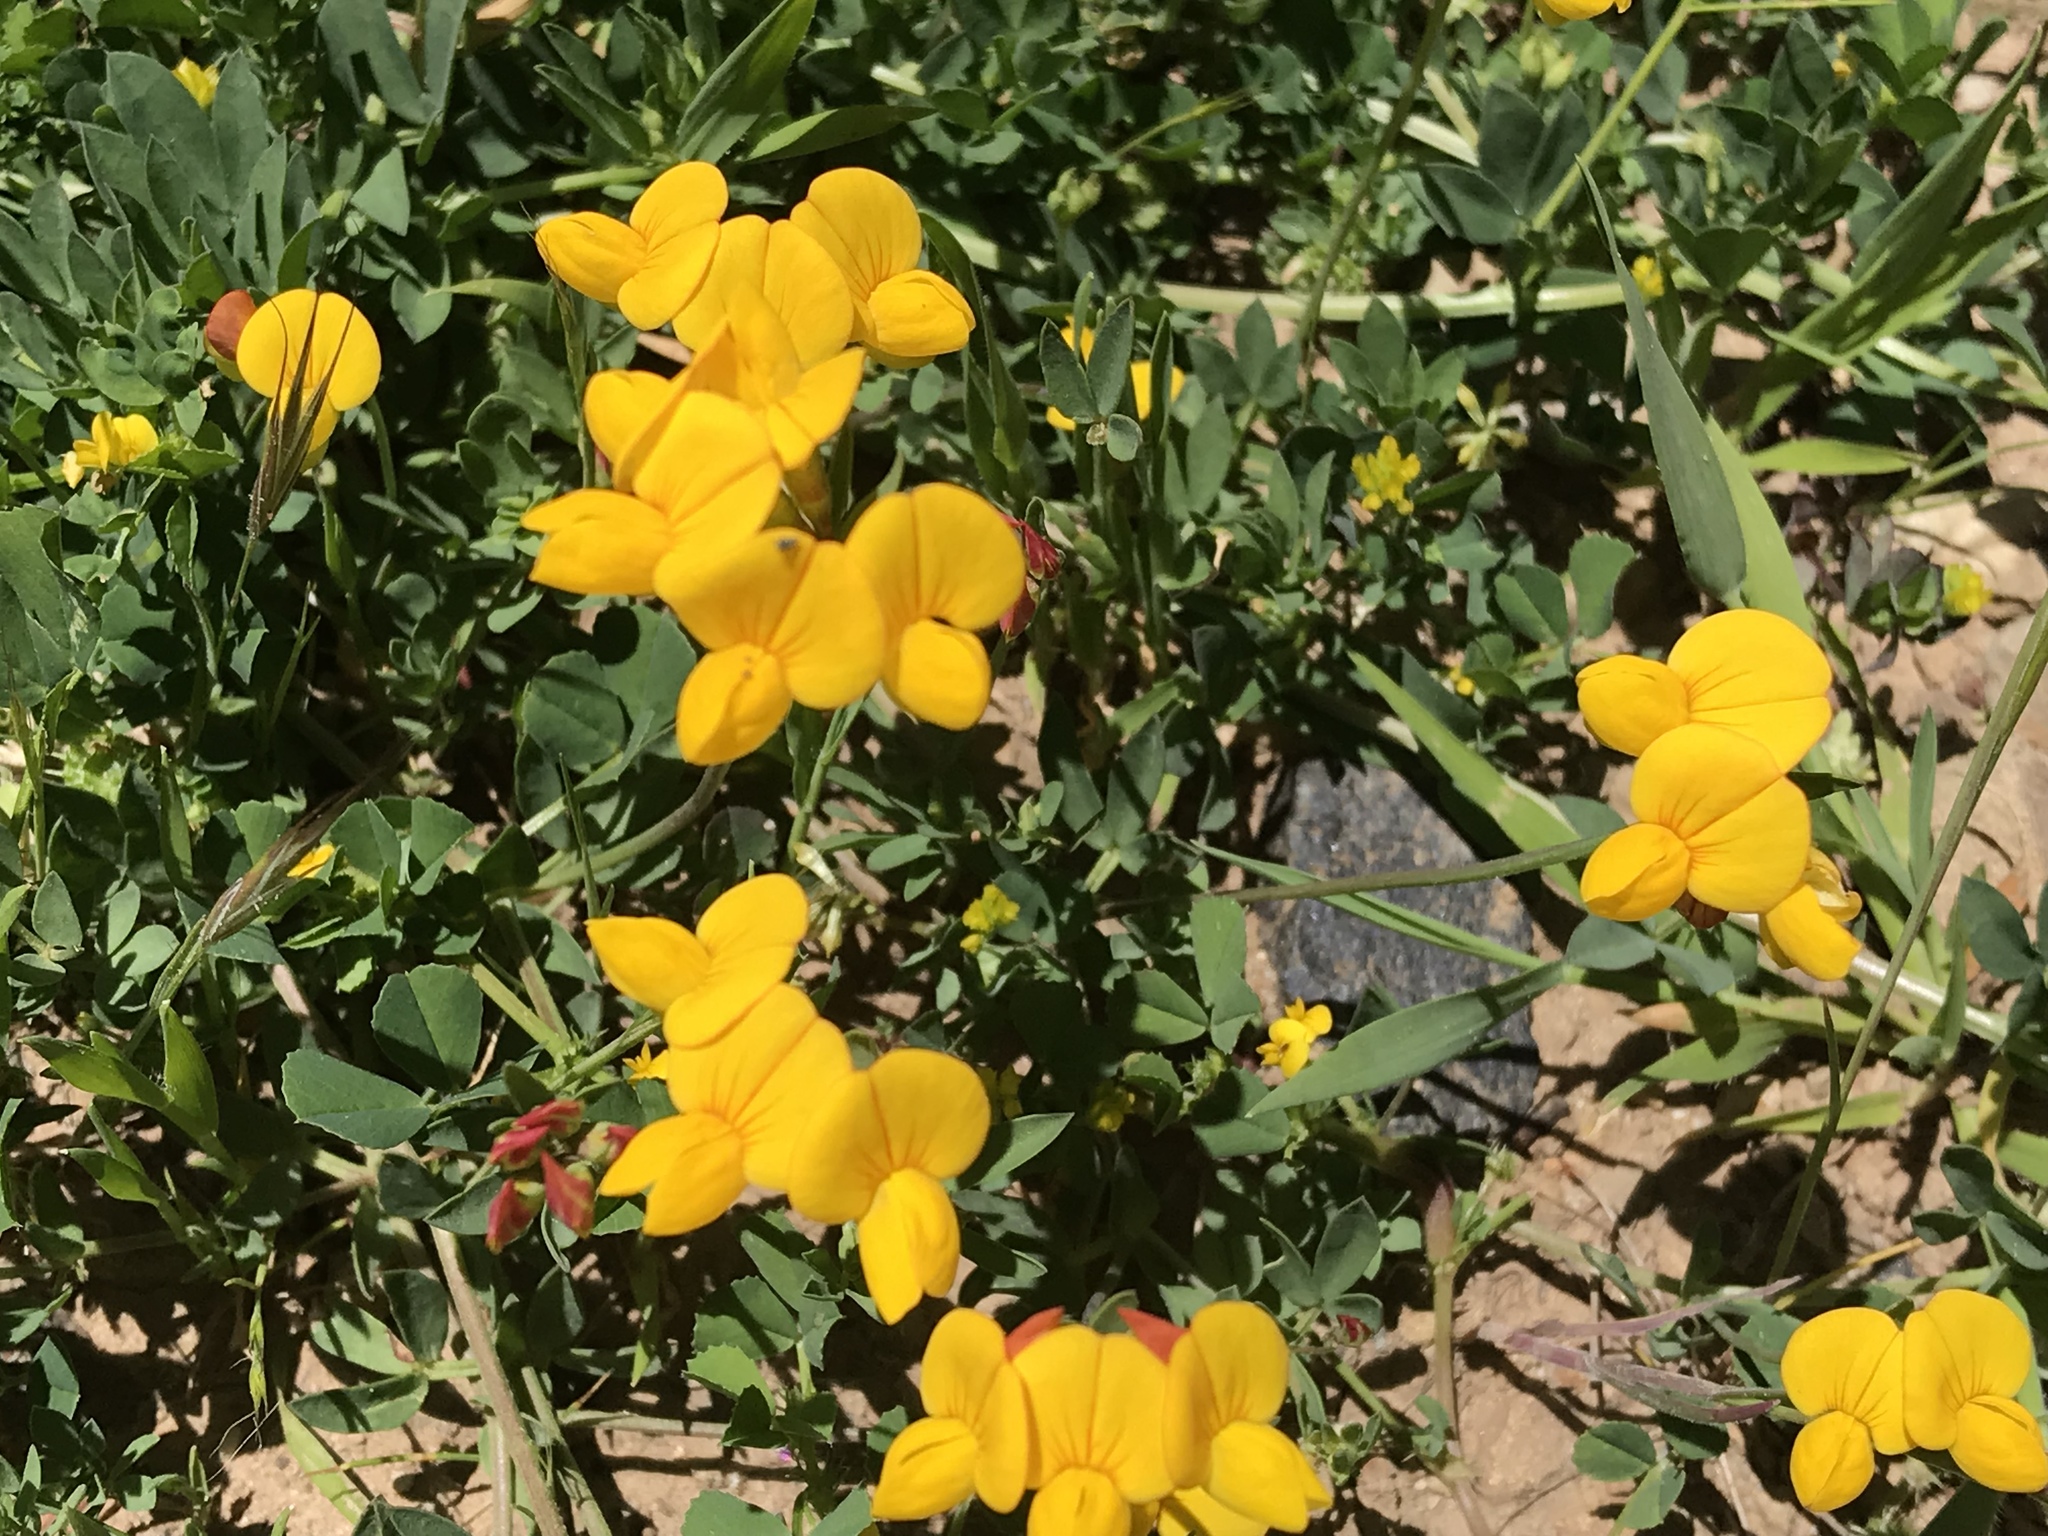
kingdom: Plantae
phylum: Tracheophyta
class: Magnoliopsida
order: Fabales
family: Fabaceae
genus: Lotus
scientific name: Lotus corniculatus
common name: Common bird's-foot-trefoil
